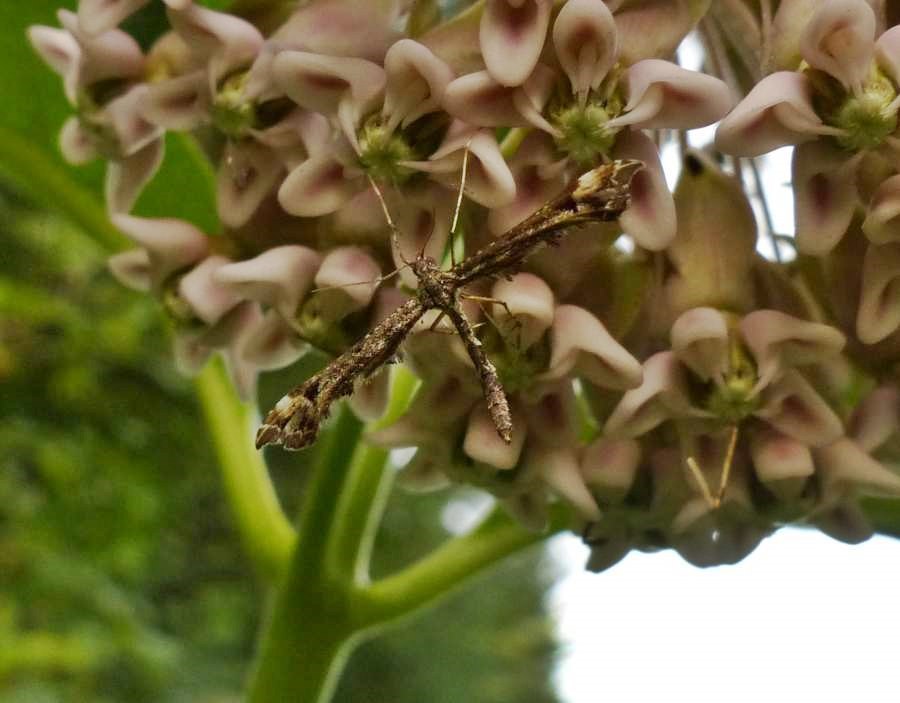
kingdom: Animalia
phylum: Arthropoda
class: Insecta
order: Lepidoptera
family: Pterophoridae
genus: Amblyptilia
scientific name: Amblyptilia pica
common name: Geranium plume moth
